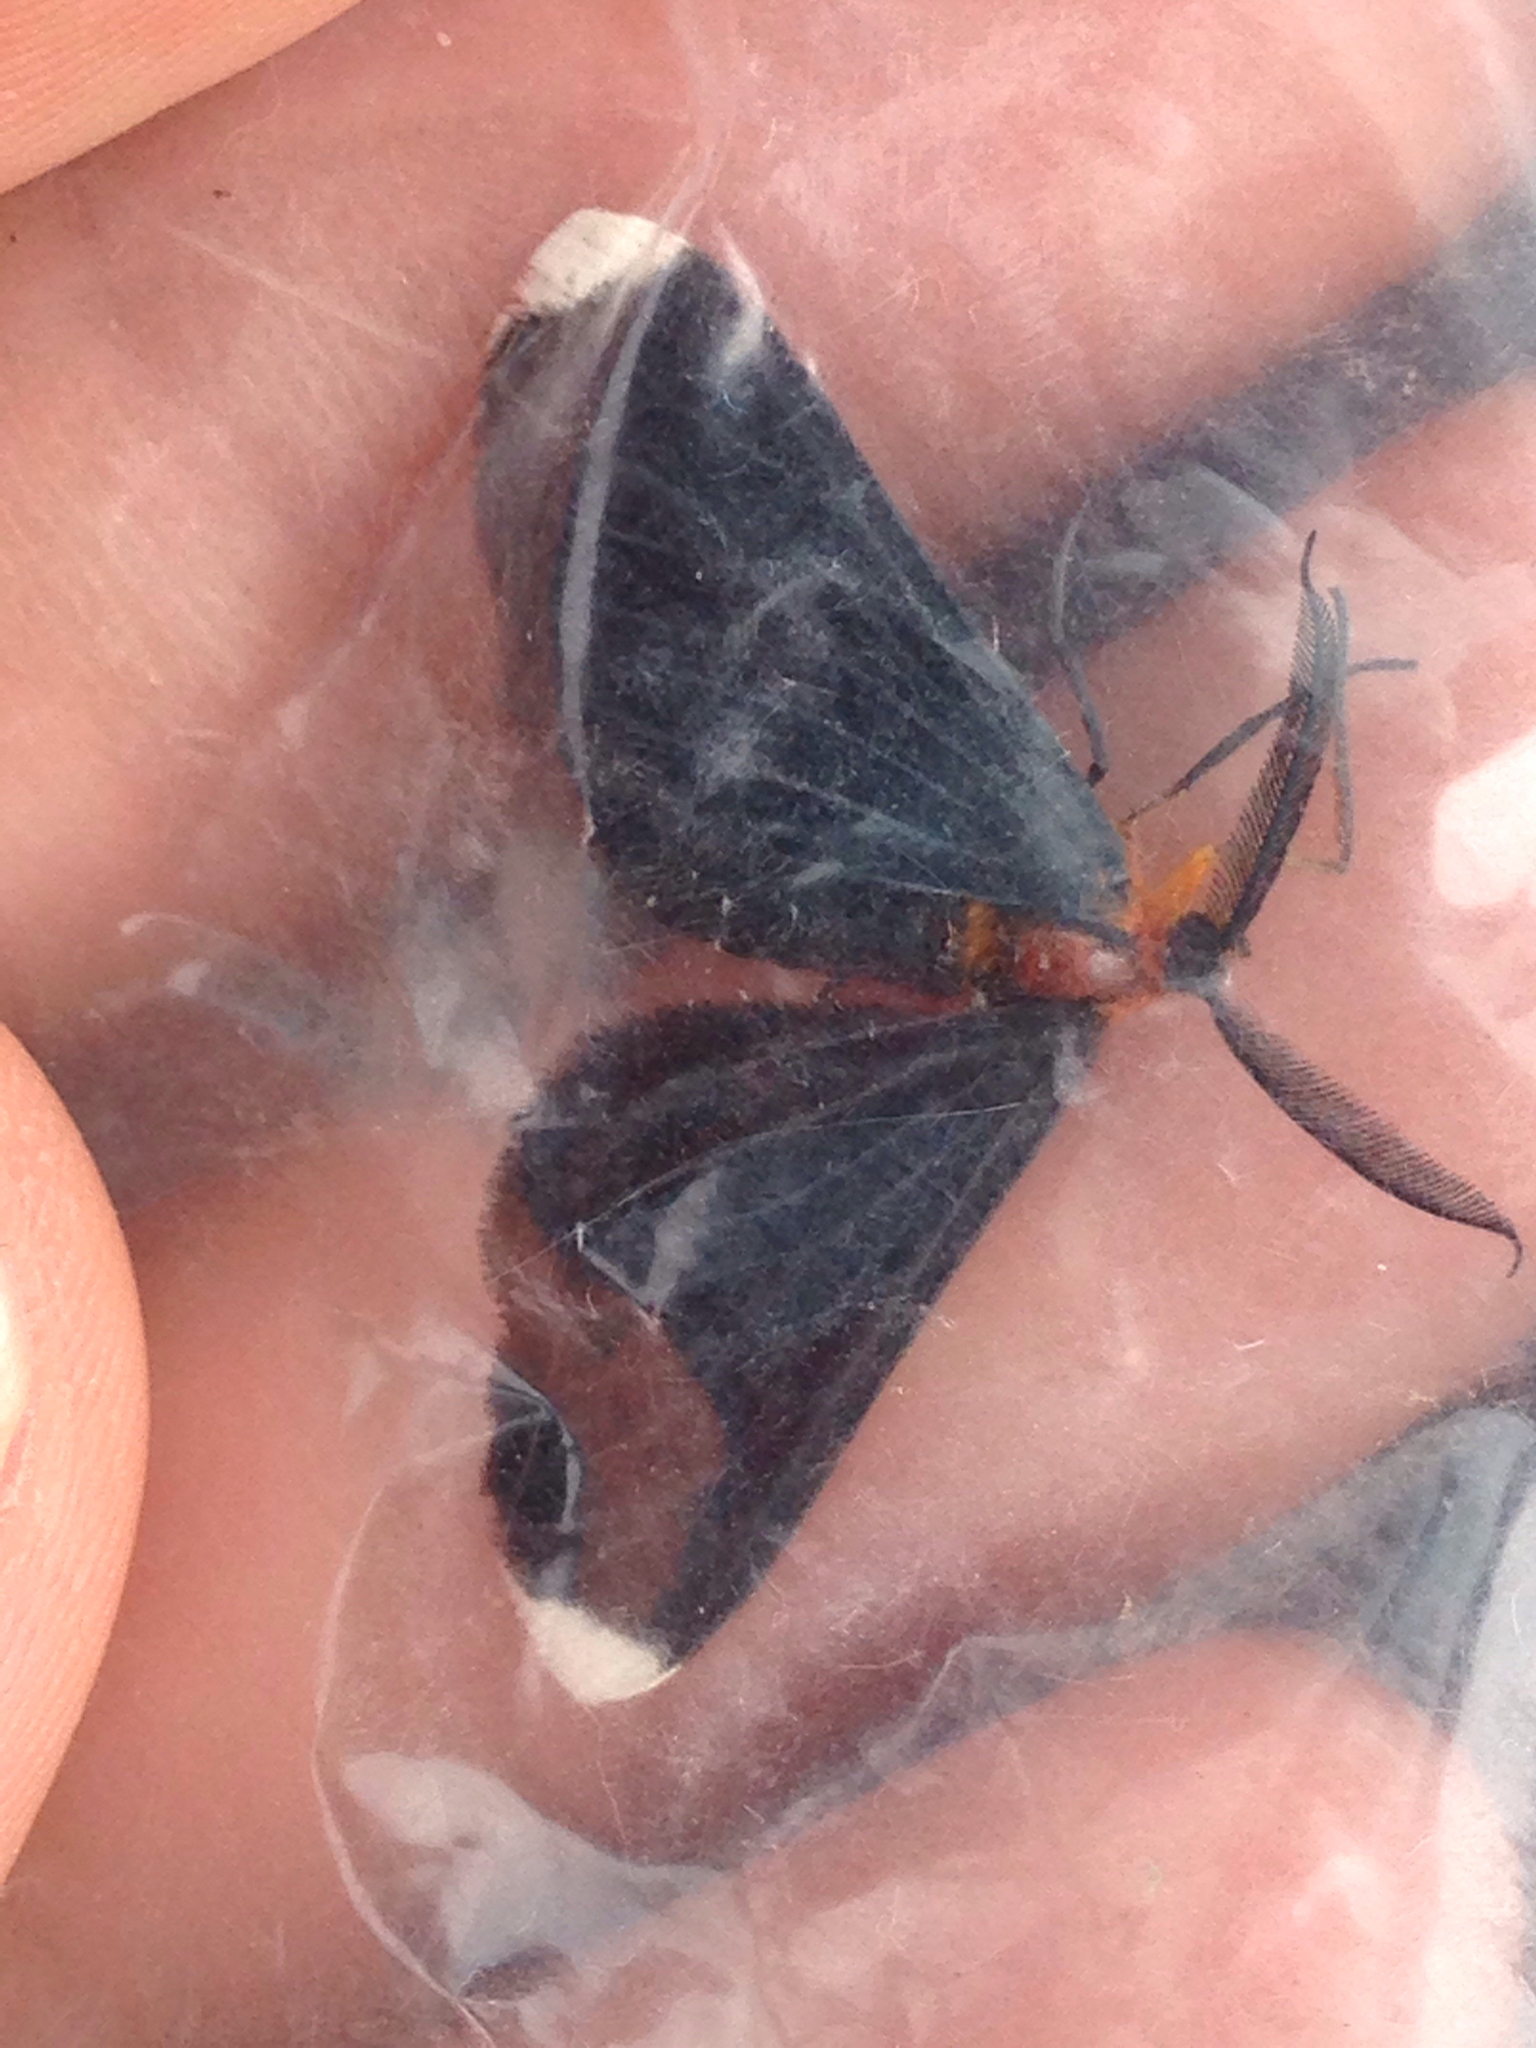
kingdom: Animalia
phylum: Arthropoda
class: Insecta
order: Lepidoptera
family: Geometridae
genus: Melanchroia
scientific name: Melanchroia chephise
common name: White-tipped black
